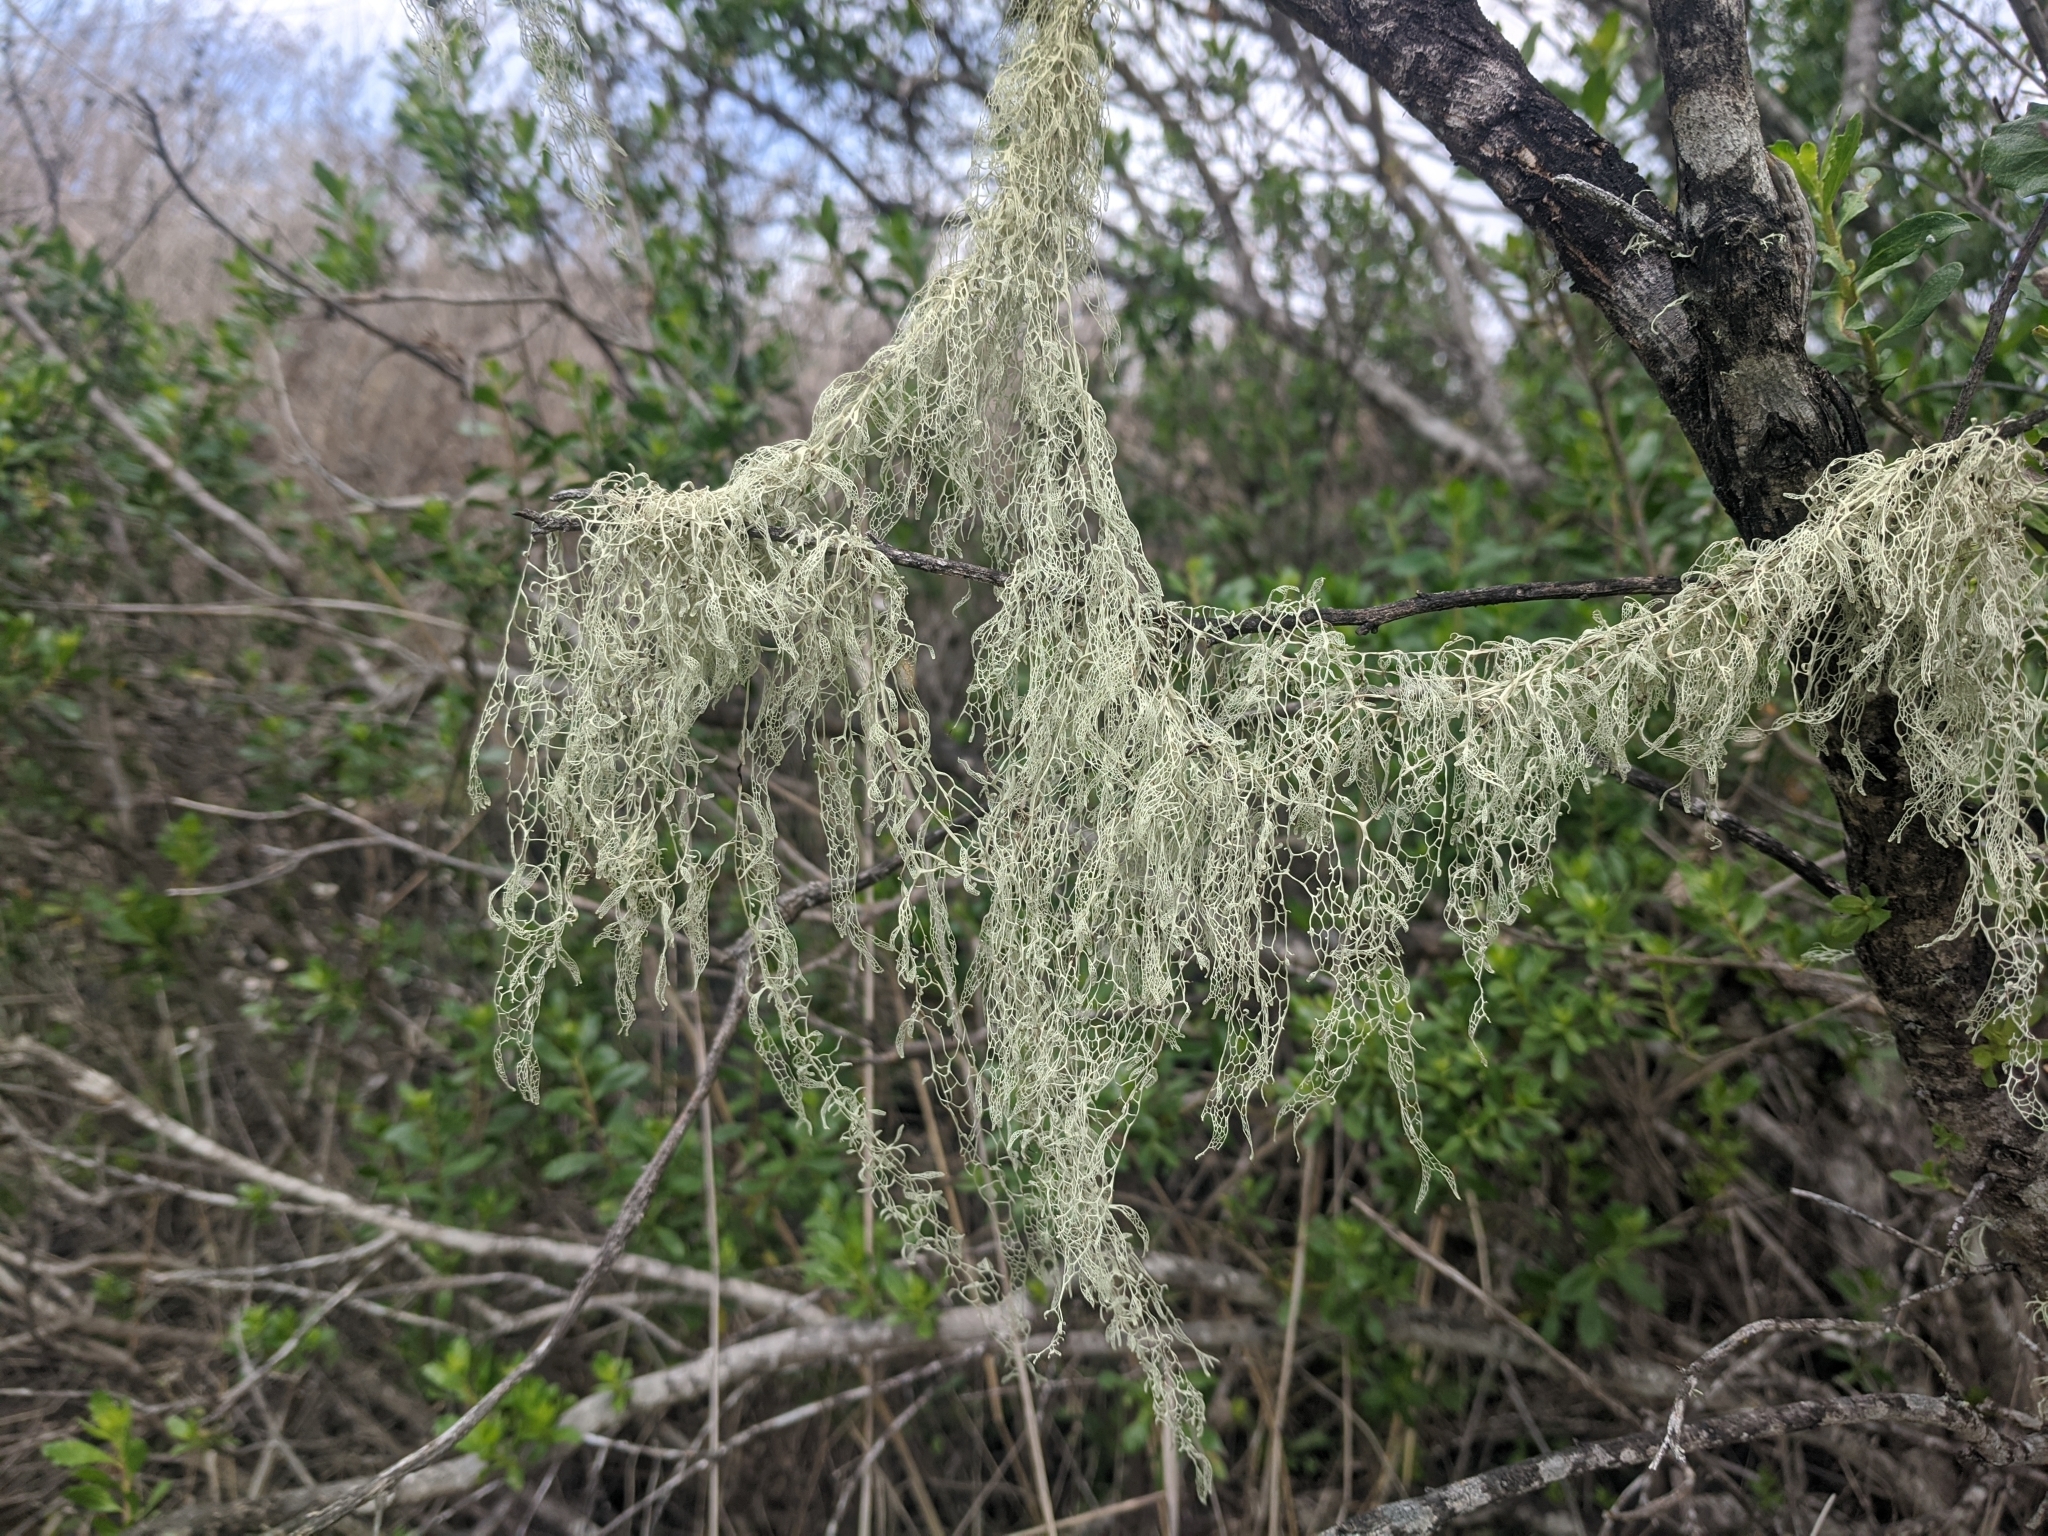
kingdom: Fungi
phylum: Ascomycota
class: Lecanoromycetes
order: Lecanorales
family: Ramalinaceae
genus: Ramalina
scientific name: Ramalina menziesii
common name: Lace lichen
